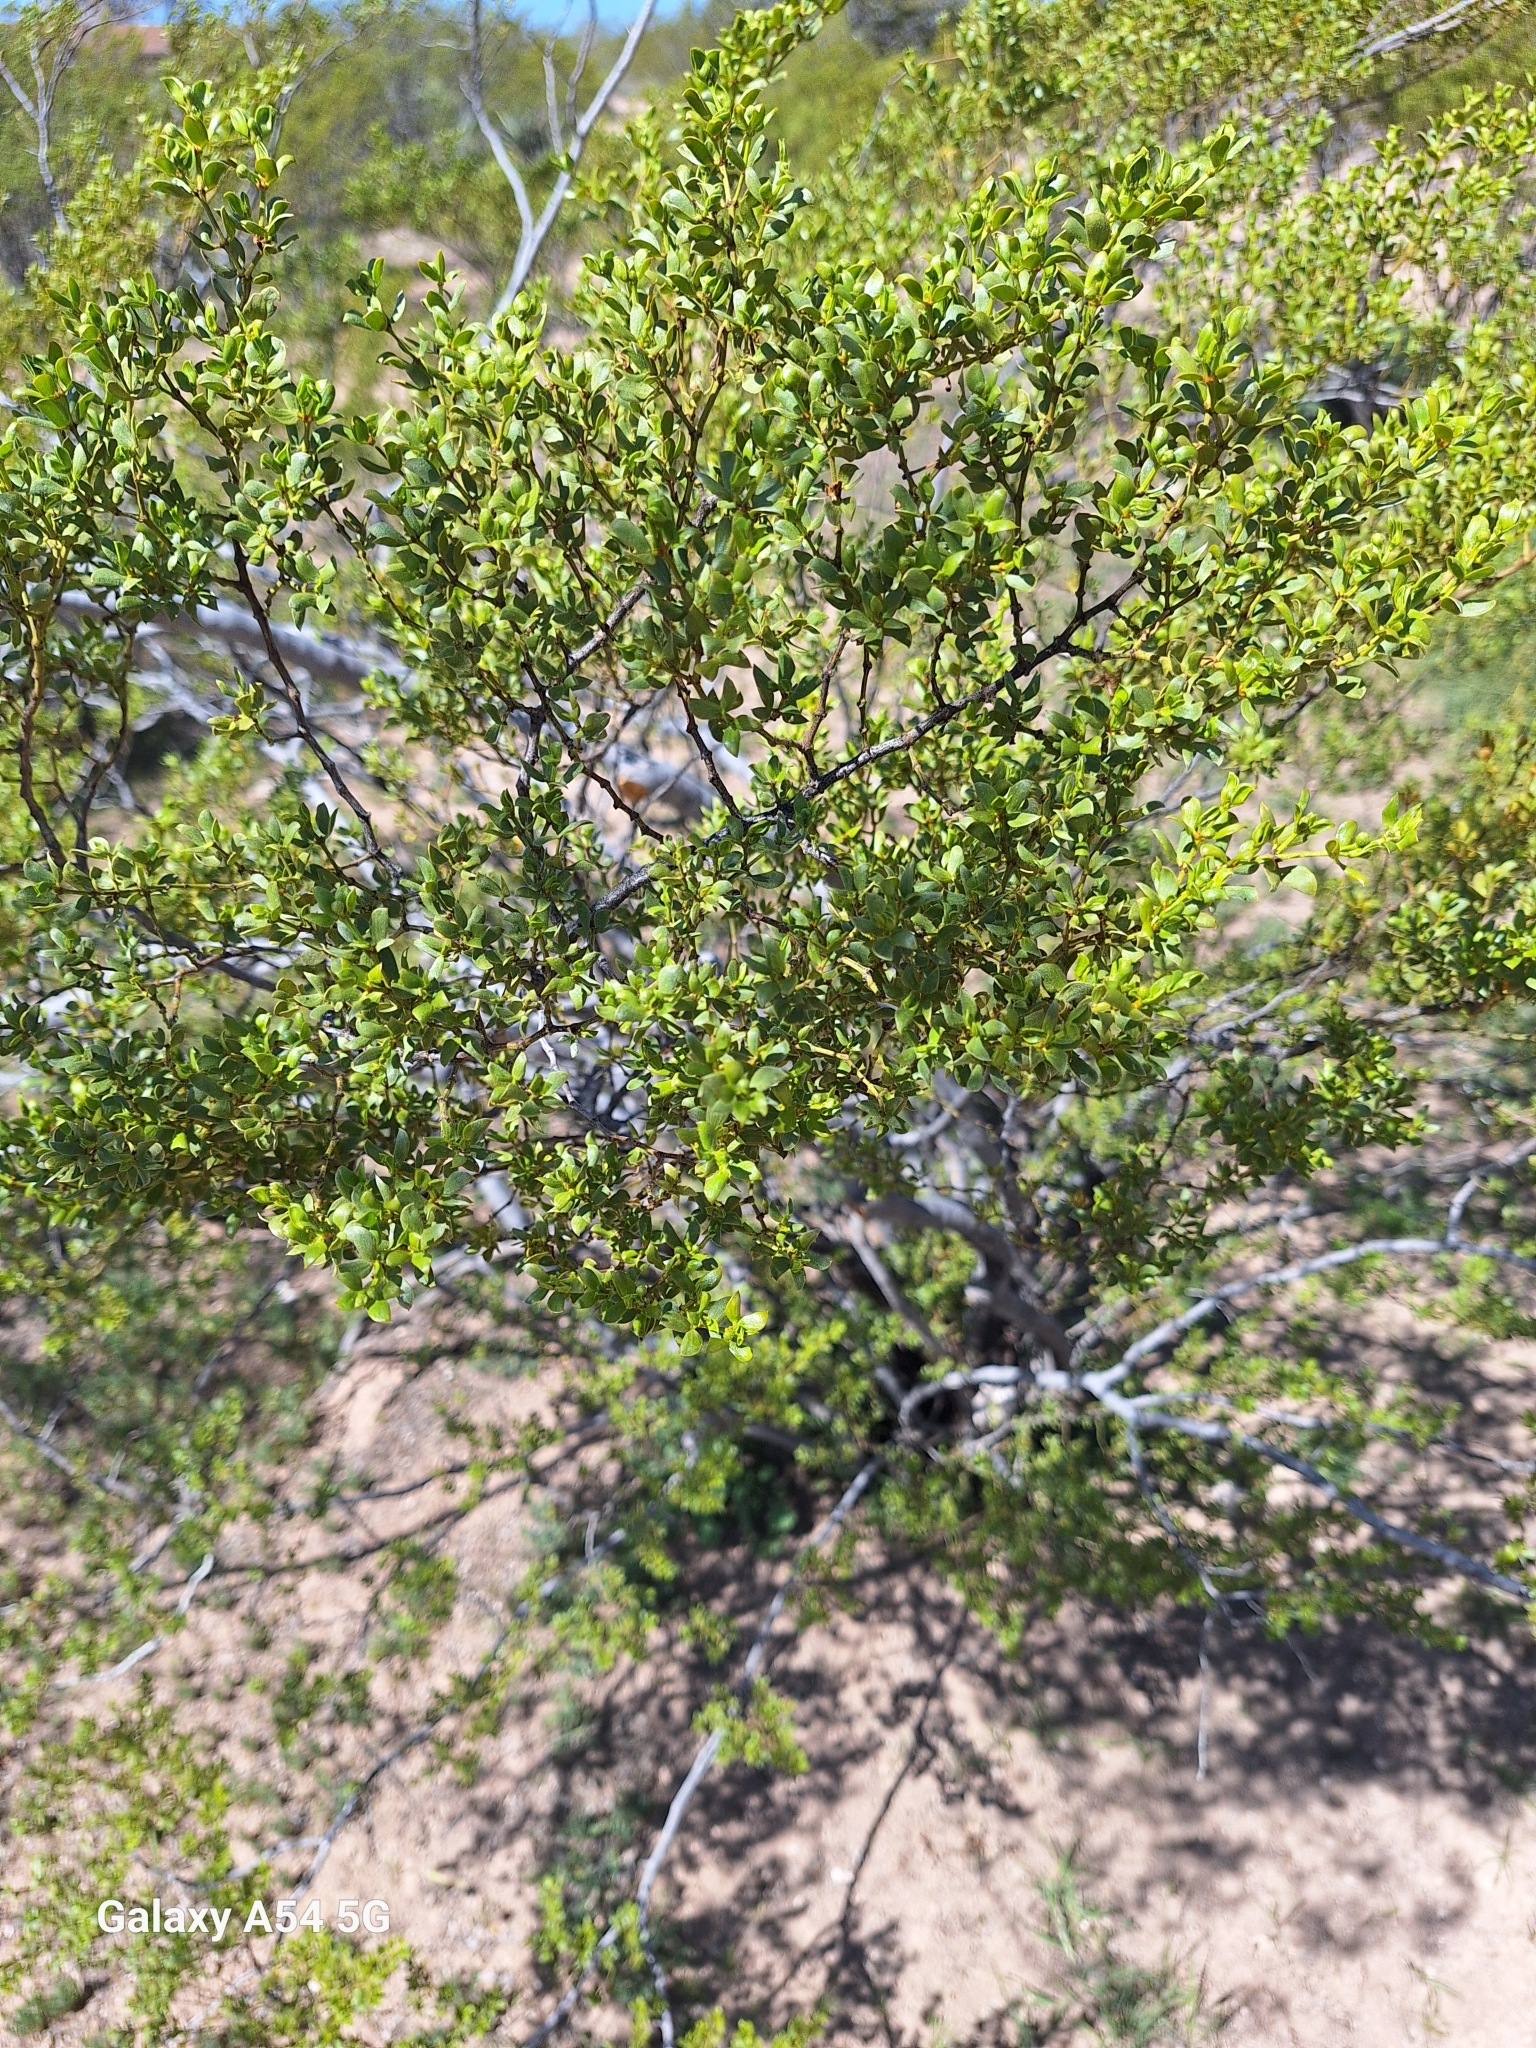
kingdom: Plantae
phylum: Tracheophyta
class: Magnoliopsida
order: Zygophyllales
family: Zygophyllaceae
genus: Larrea
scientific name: Larrea tridentata
